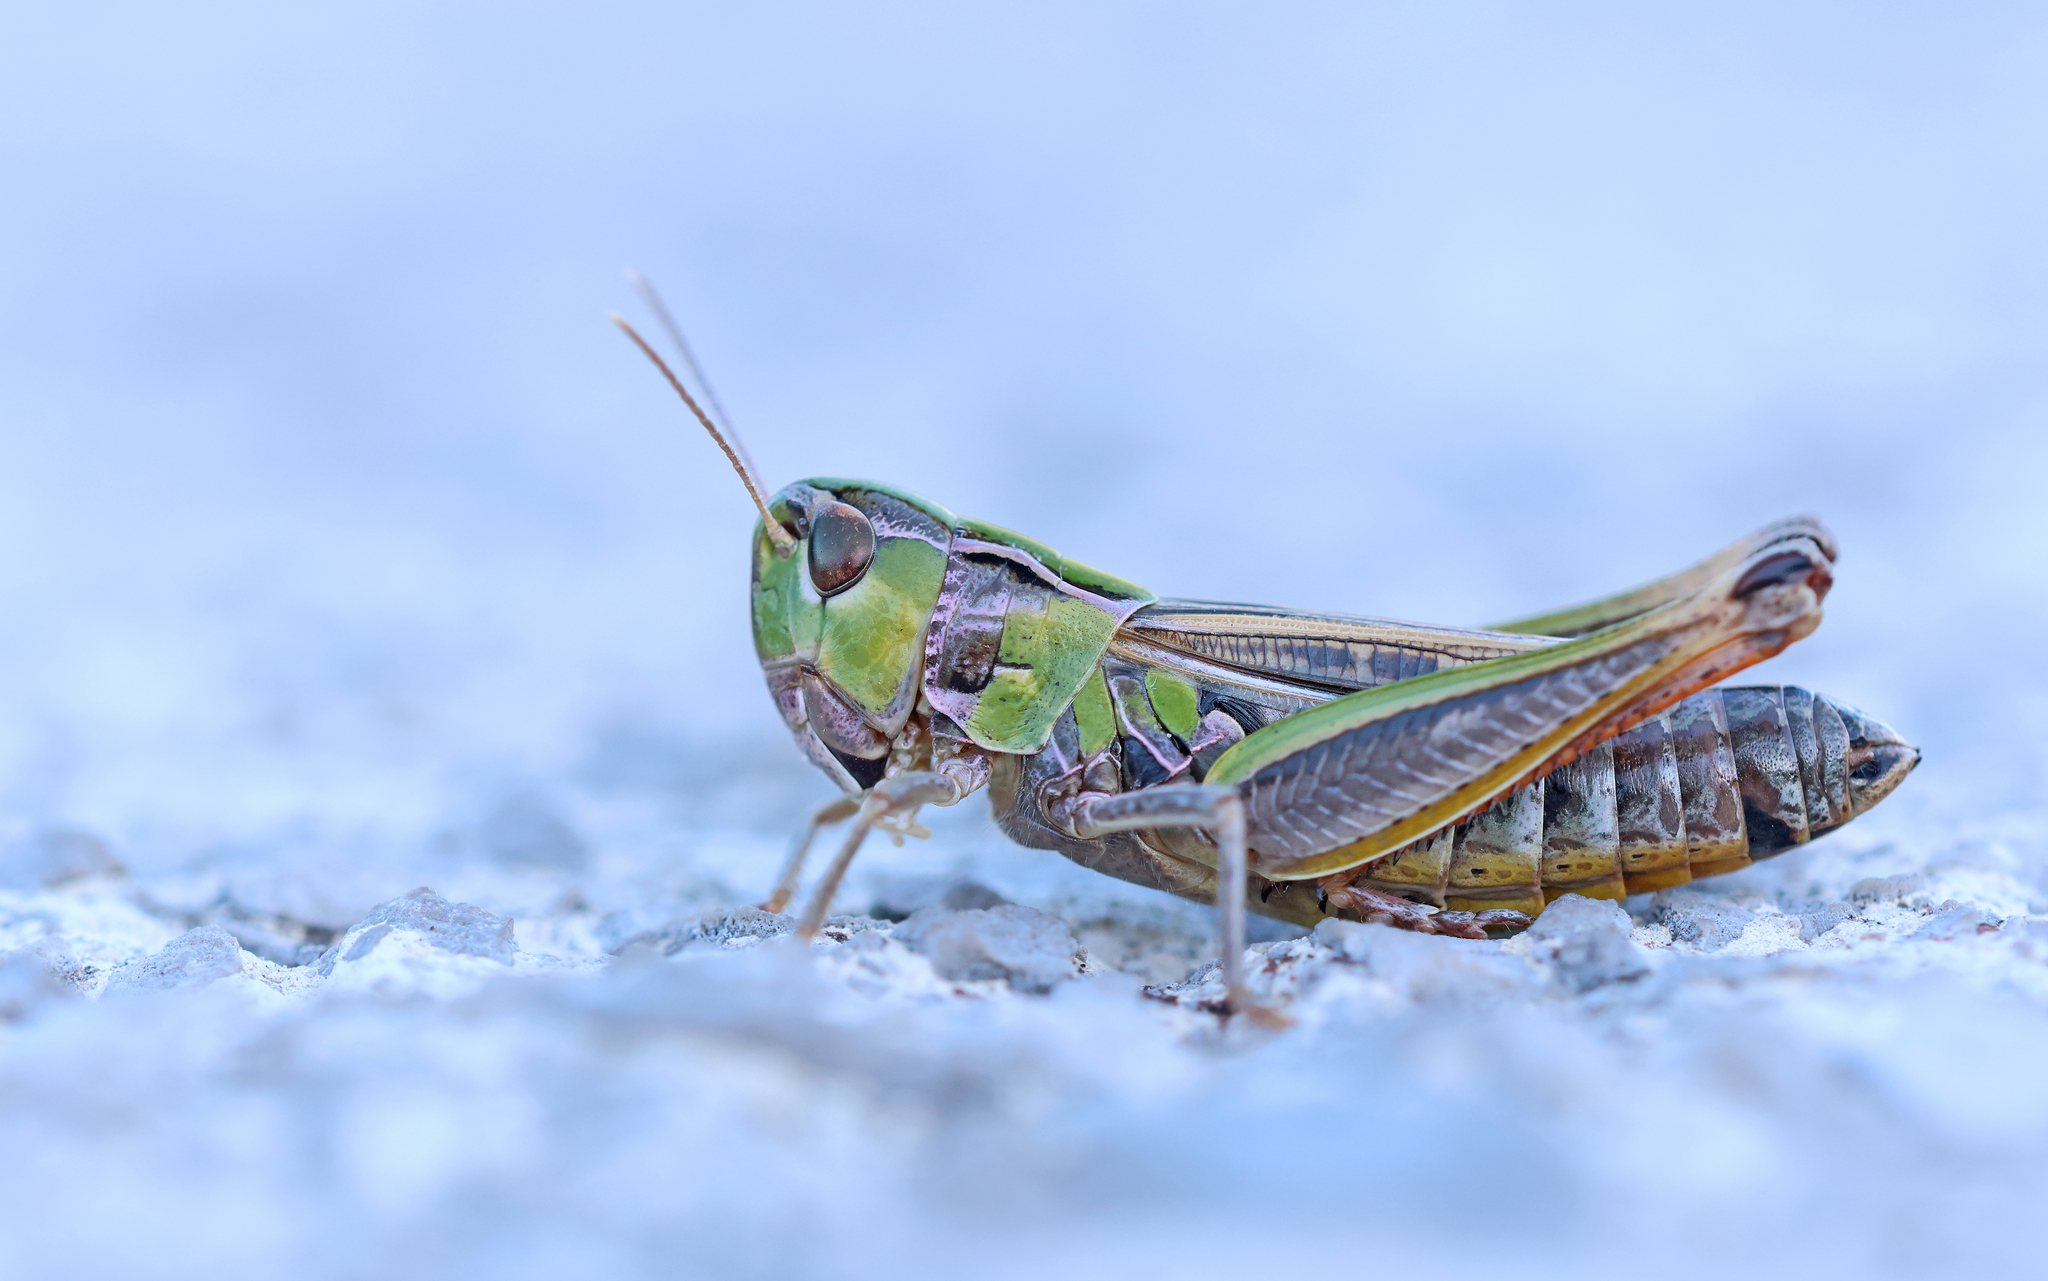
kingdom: Animalia
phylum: Arthropoda
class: Insecta
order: Orthoptera
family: Acrididae
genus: Stenobothrus
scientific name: Stenobothrus nigromaculatus
